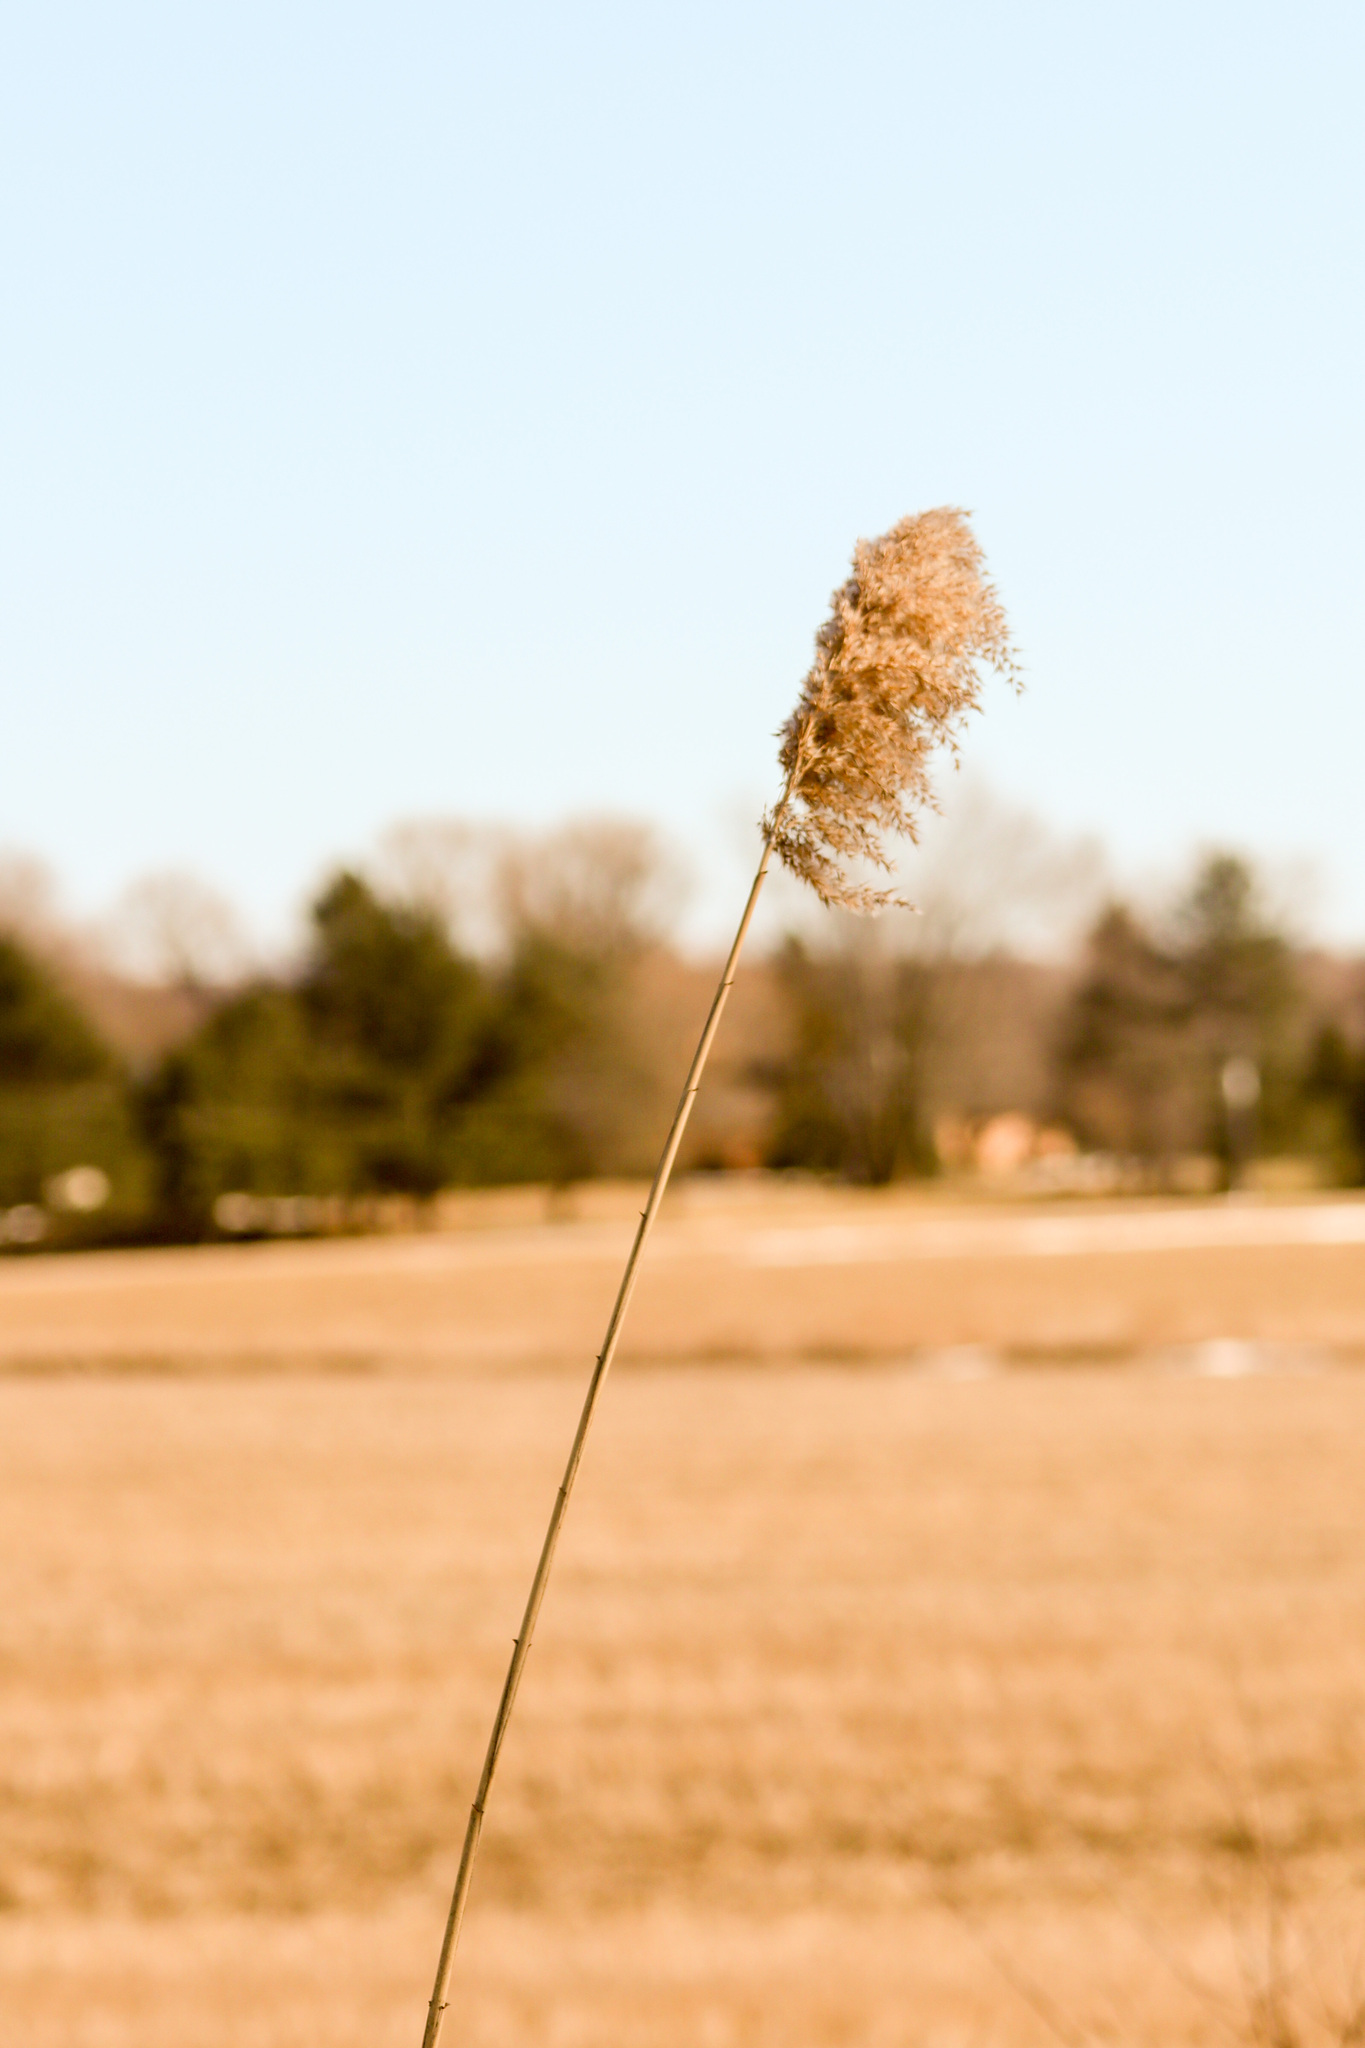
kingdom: Plantae
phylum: Tracheophyta
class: Liliopsida
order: Poales
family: Poaceae
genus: Phragmites
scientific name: Phragmites australis
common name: Common reed
